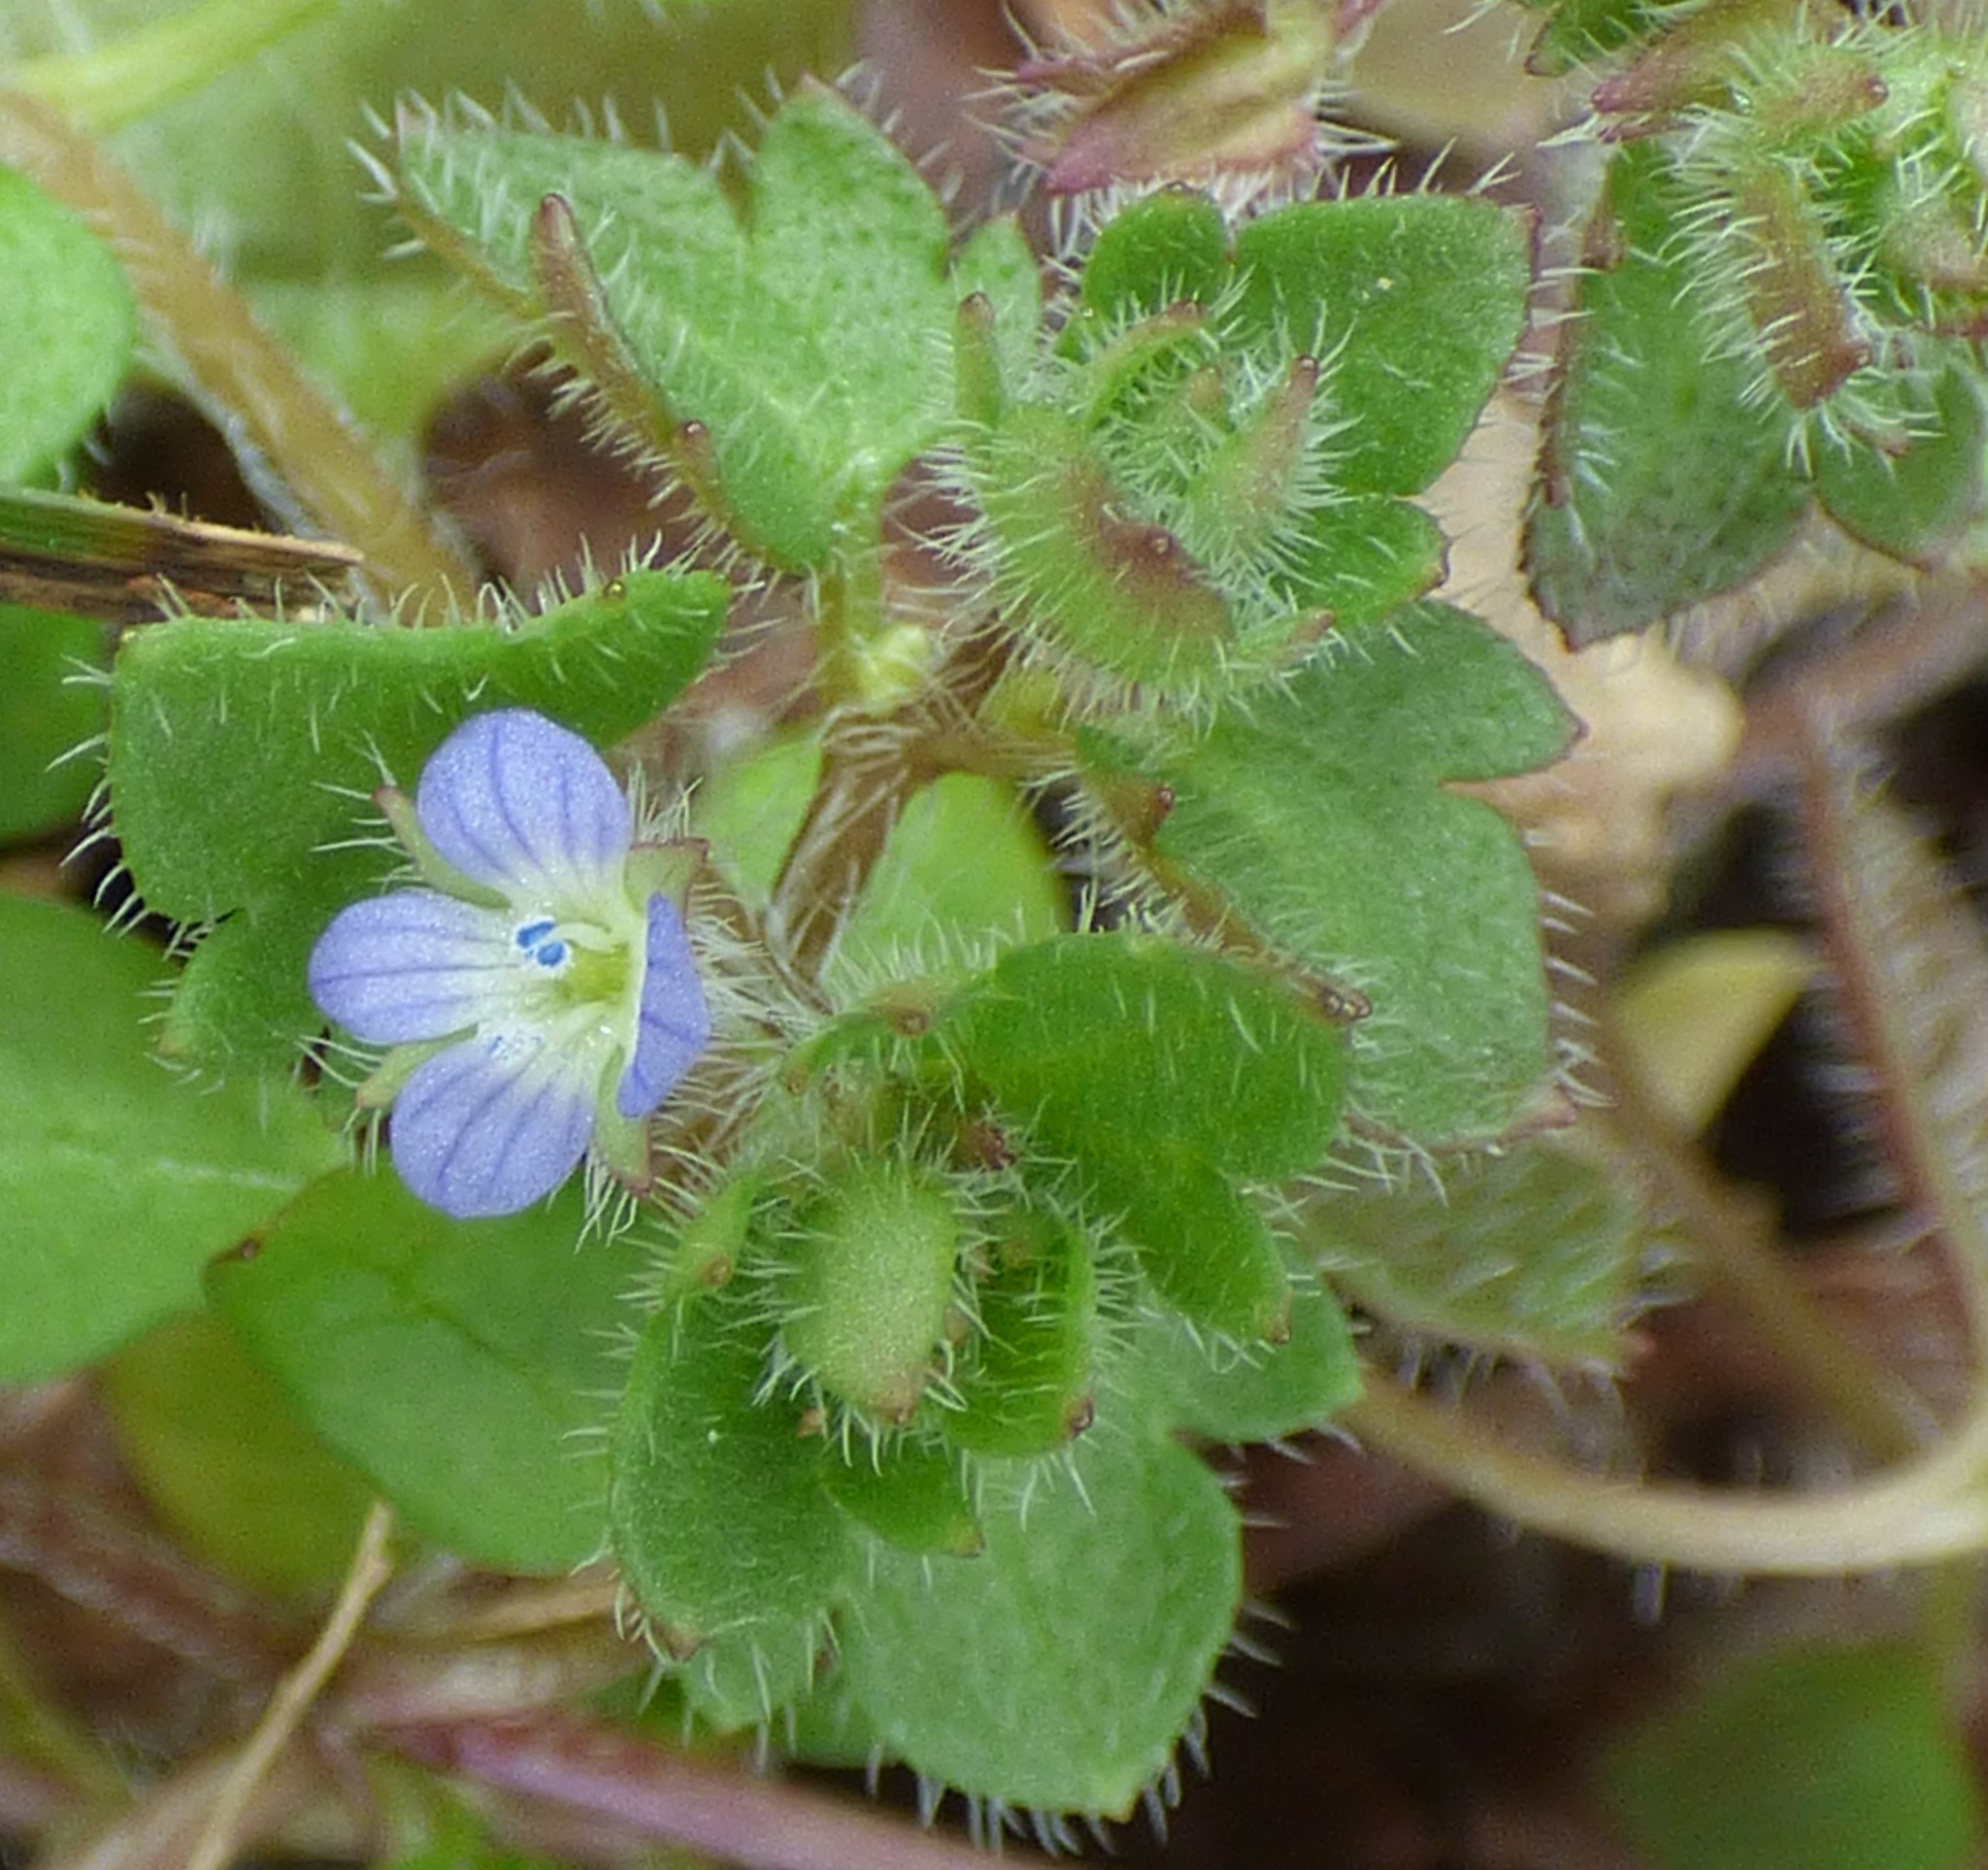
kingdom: Plantae
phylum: Tracheophyta
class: Magnoliopsida
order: Lamiales
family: Plantaginaceae
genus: Veronica
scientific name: Veronica hederifolia
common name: Ivy-leaved speedwell
